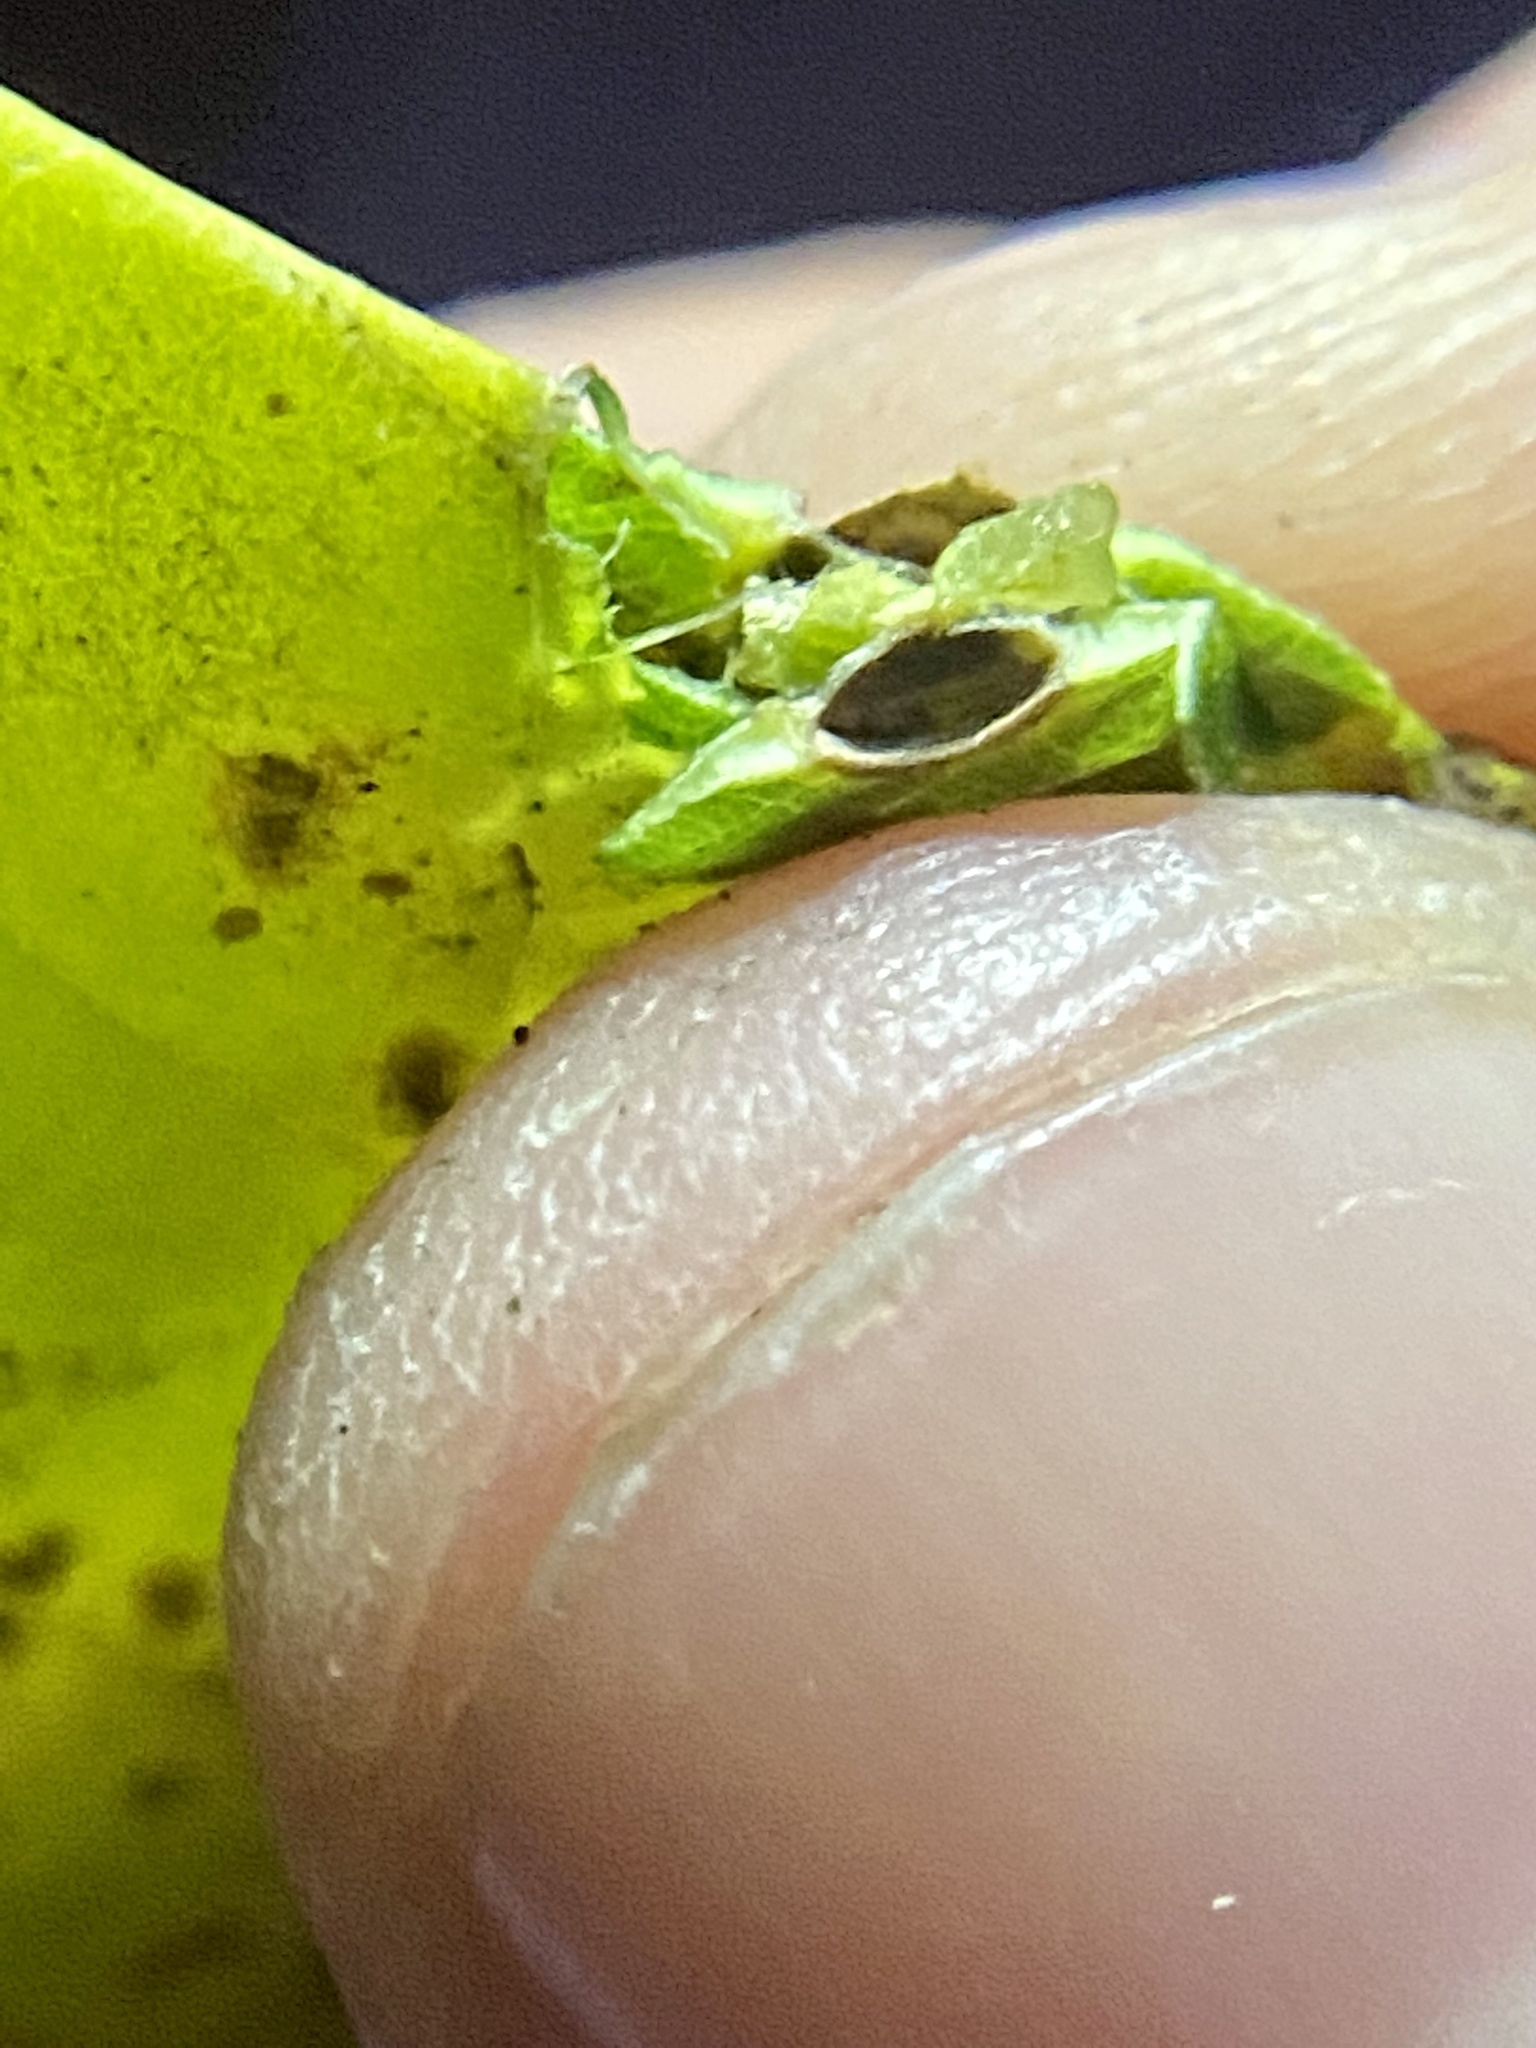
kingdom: Animalia
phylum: Arthropoda
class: Insecta
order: Hemiptera
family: Aphalaridae
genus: Pachypsylla
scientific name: Pachypsylla celtidisasterisca
